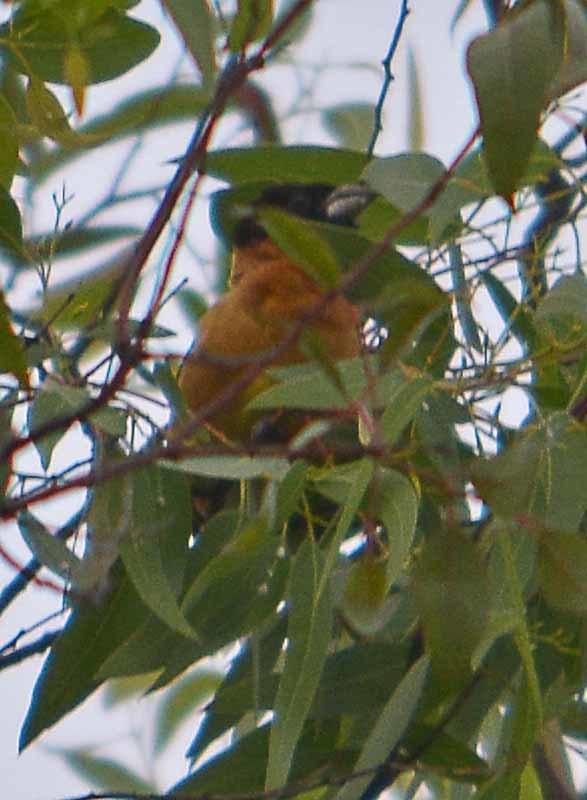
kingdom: Animalia
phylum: Chordata
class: Aves
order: Passeriformes
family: Cardinalidae
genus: Pheucticus
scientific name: Pheucticus melanocephalus
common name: Black-headed grosbeak
